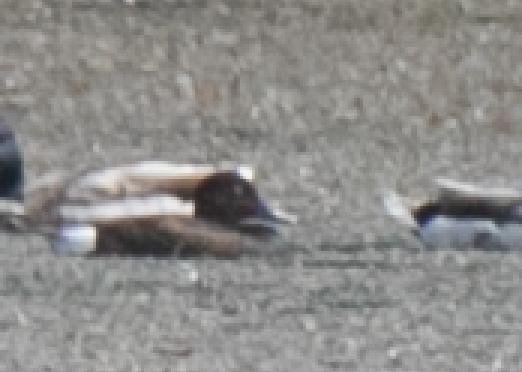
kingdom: Animalia
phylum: Chordata
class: Aves
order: Anseriformes
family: Anatidae
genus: Aythya
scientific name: Aythya nyroca
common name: Ferruginous duck
